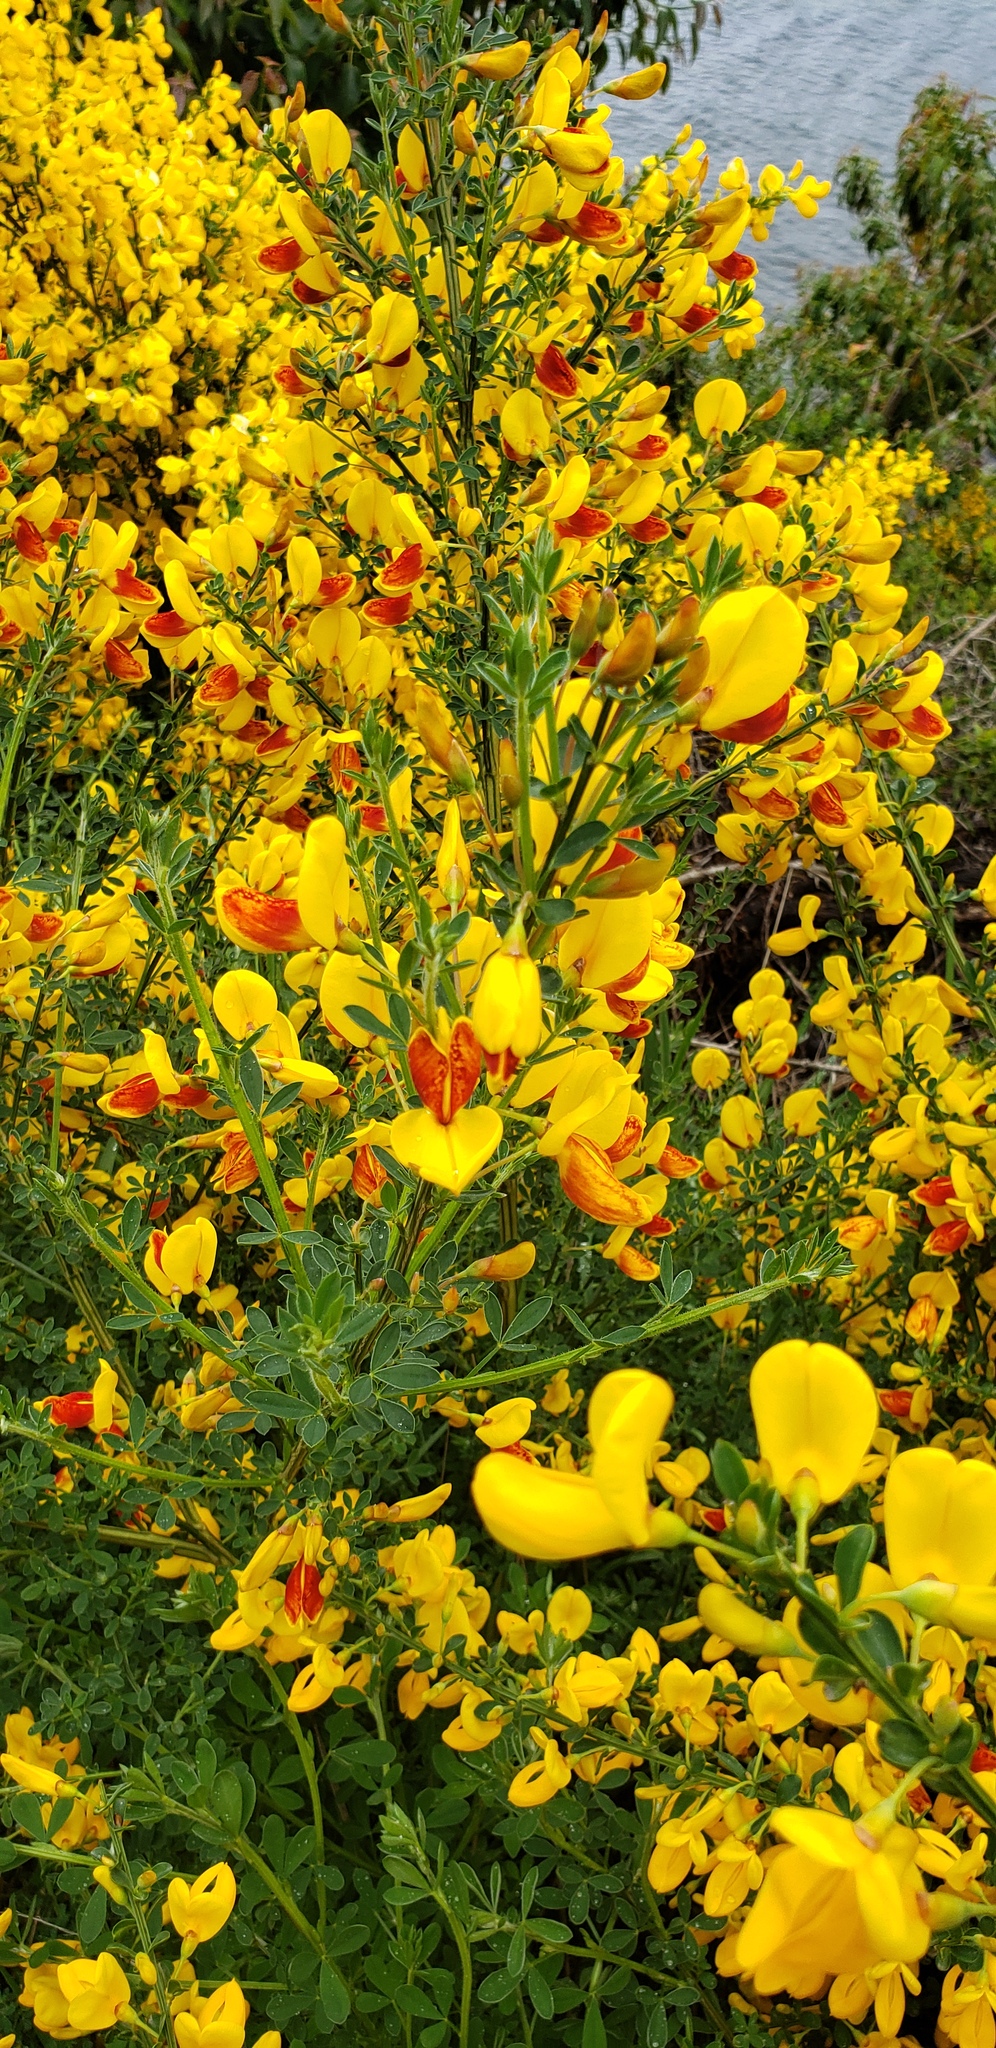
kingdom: Plantae
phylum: Tracheophyta
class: Magnoliopsida
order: Fabales
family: Fabaceae
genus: Cytisus
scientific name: Cytisus scoparius
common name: Scotch broom
